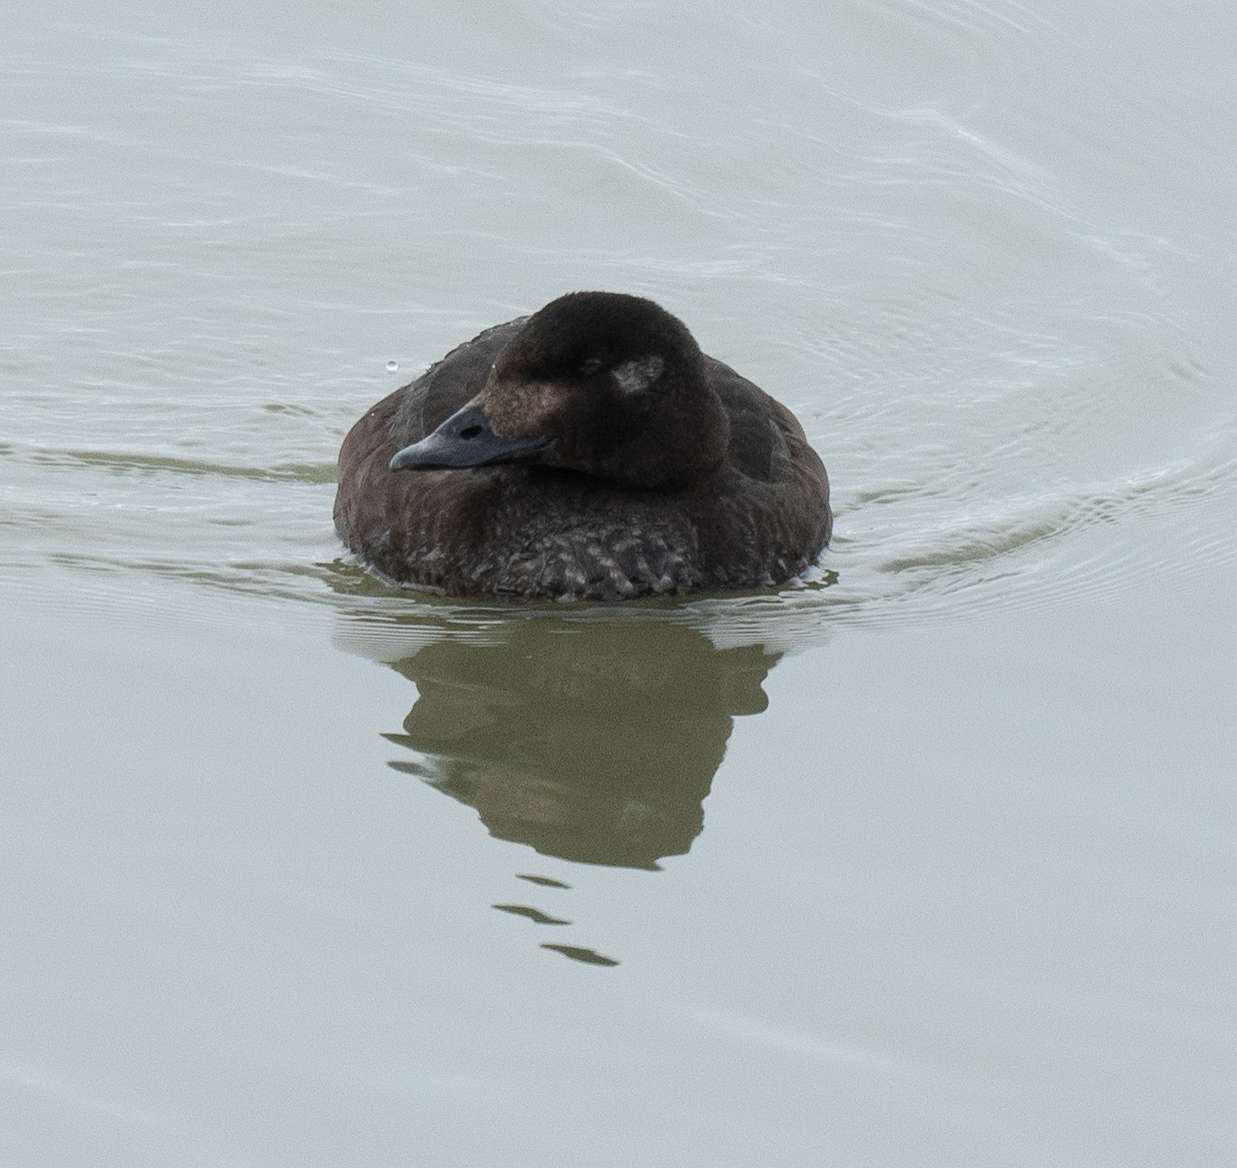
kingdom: Animalia
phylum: Chordata
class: Aves
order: Anseriformes
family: Anatidae
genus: Melanitta
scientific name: Melanitta deglandi
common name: White-winged scoter
